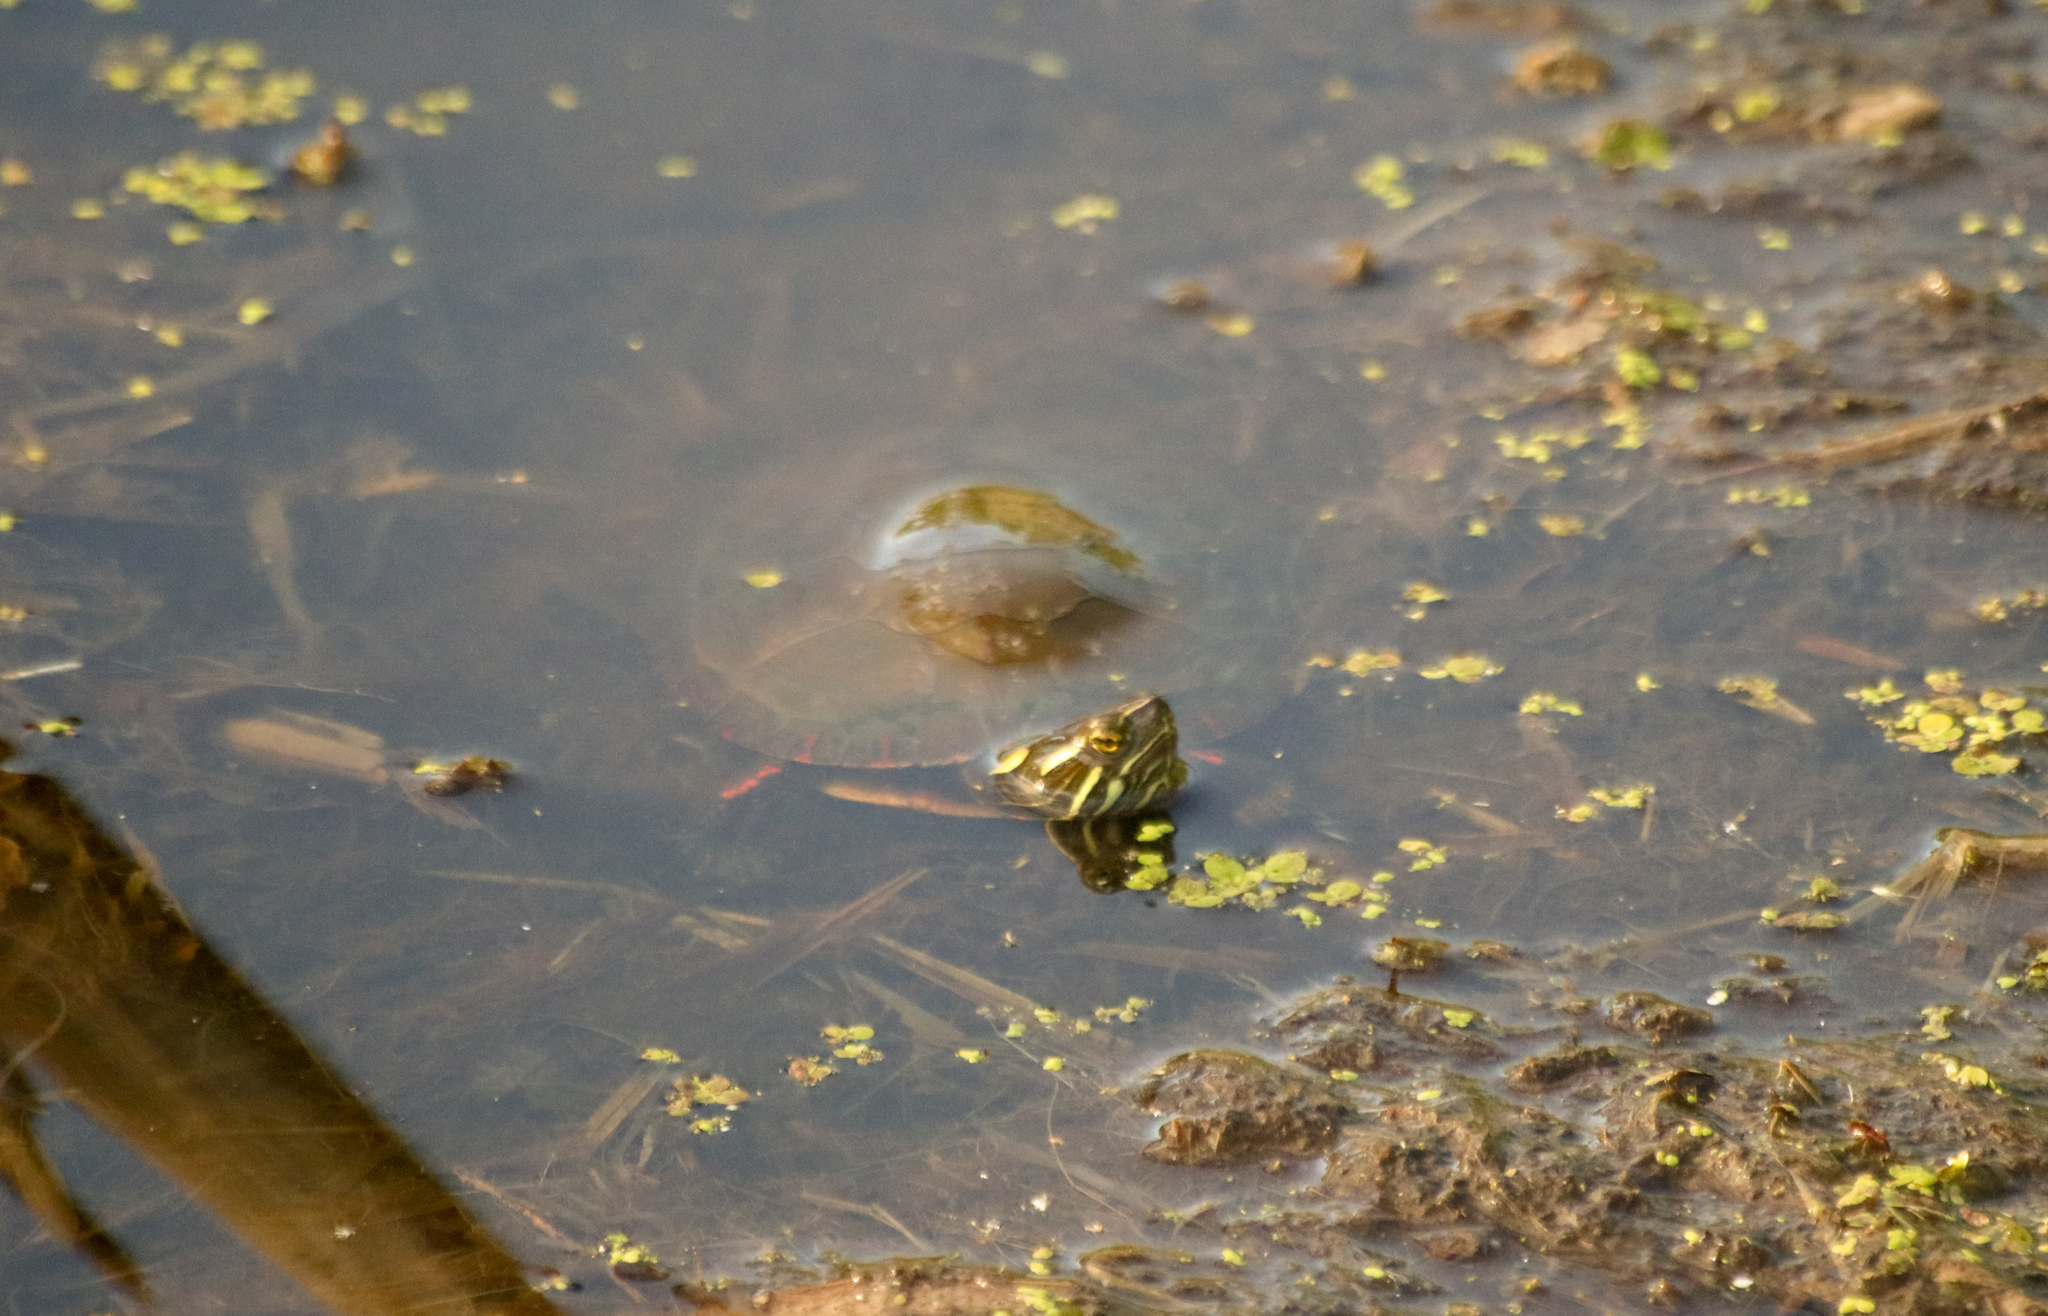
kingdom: Animalia
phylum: Chordata
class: Testudines
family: Emydidae
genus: Chrysemys
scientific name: Chrysemys picta
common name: Painted turtle
